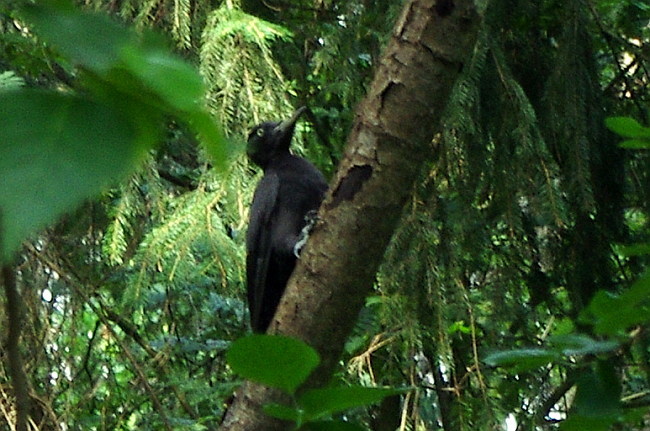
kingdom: Plantae
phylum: Tracheophyta
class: Pinopsida
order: Pinales
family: Pinaceae
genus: Picea
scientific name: Picea abies
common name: Norway spruce
